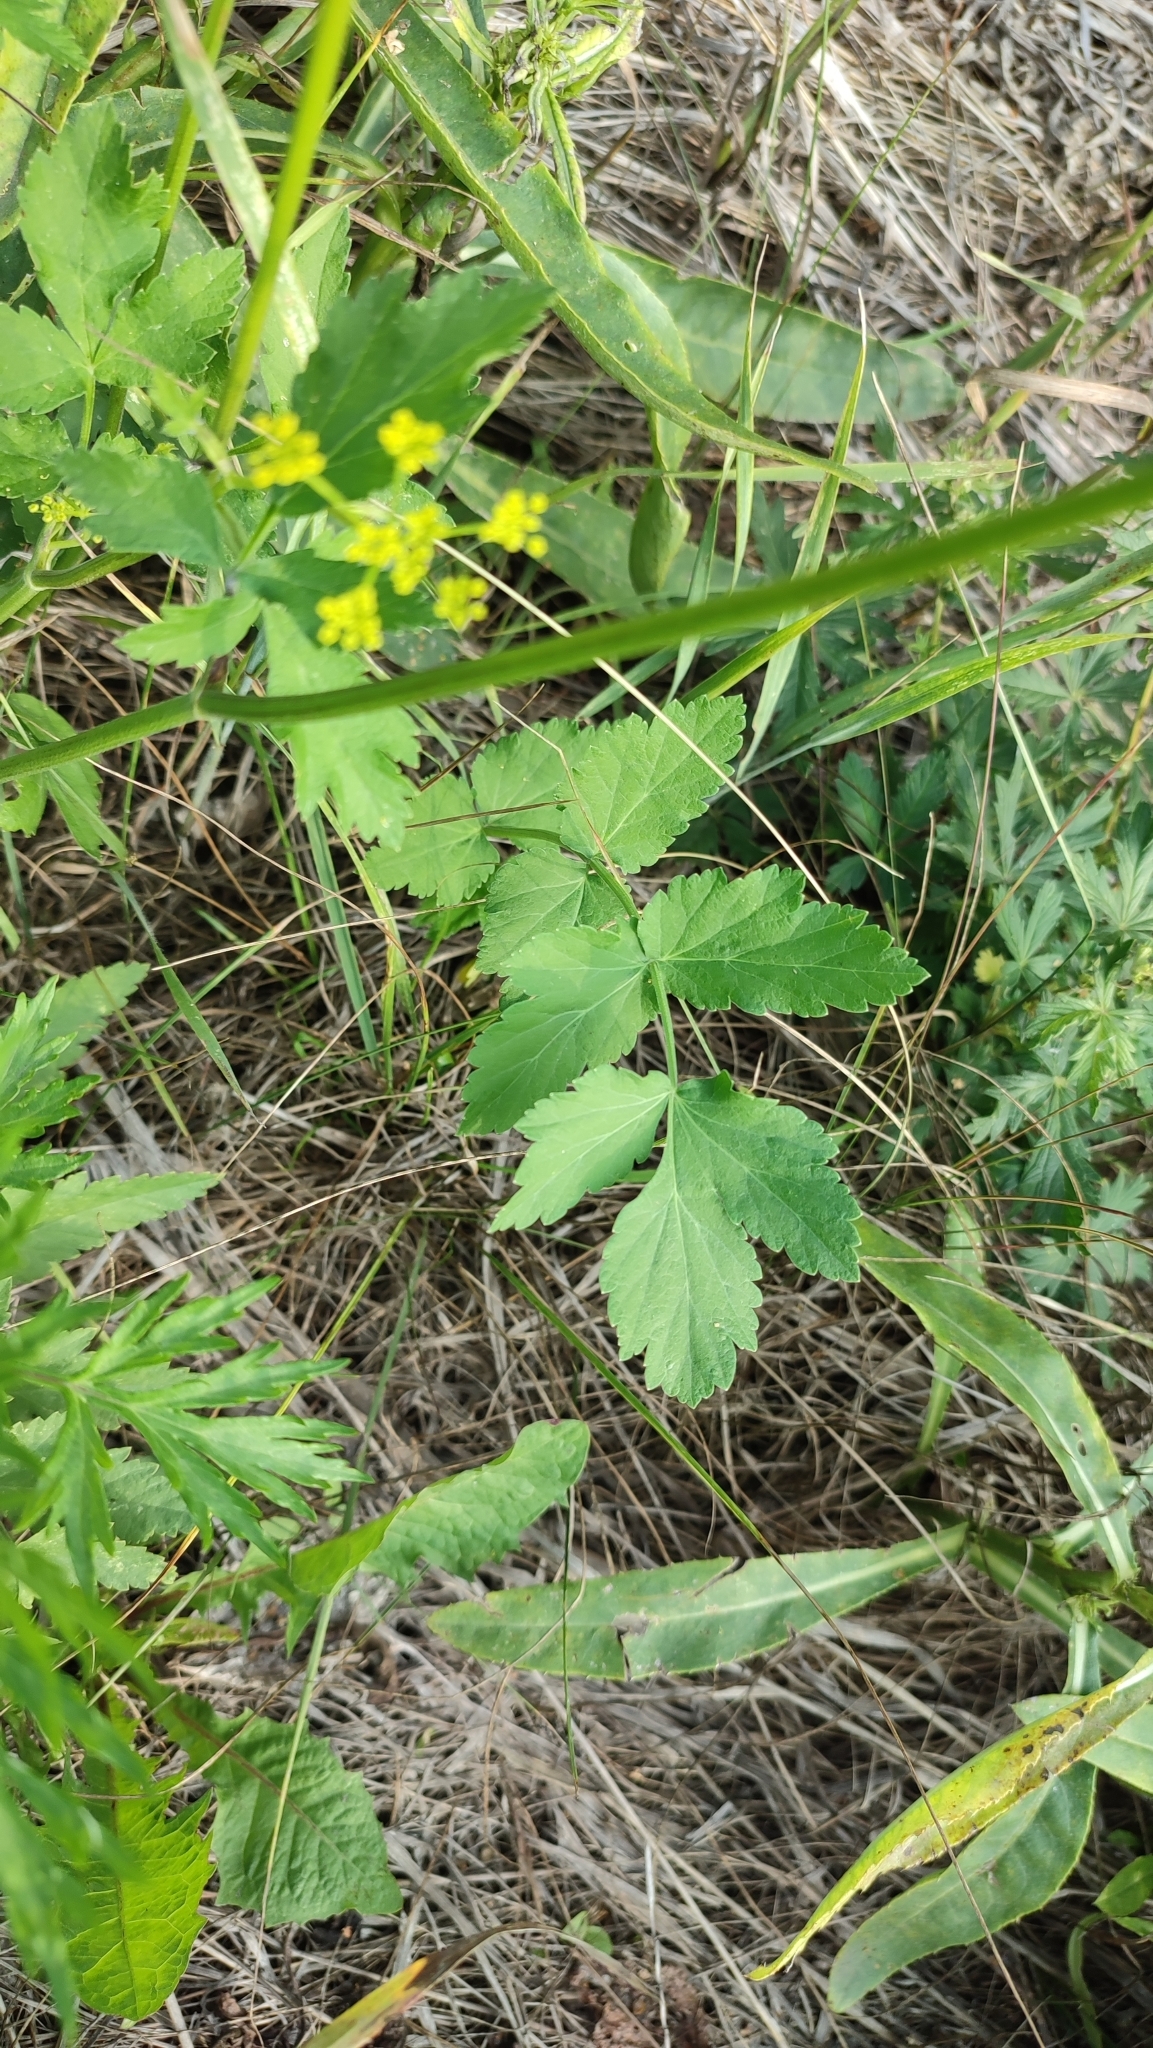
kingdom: Plantae
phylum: Tracheophyta
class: Magnoliopsida
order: Apiales
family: Apiaceae
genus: Pastinaca
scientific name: Pastinaca sativa
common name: Wild parsnip
